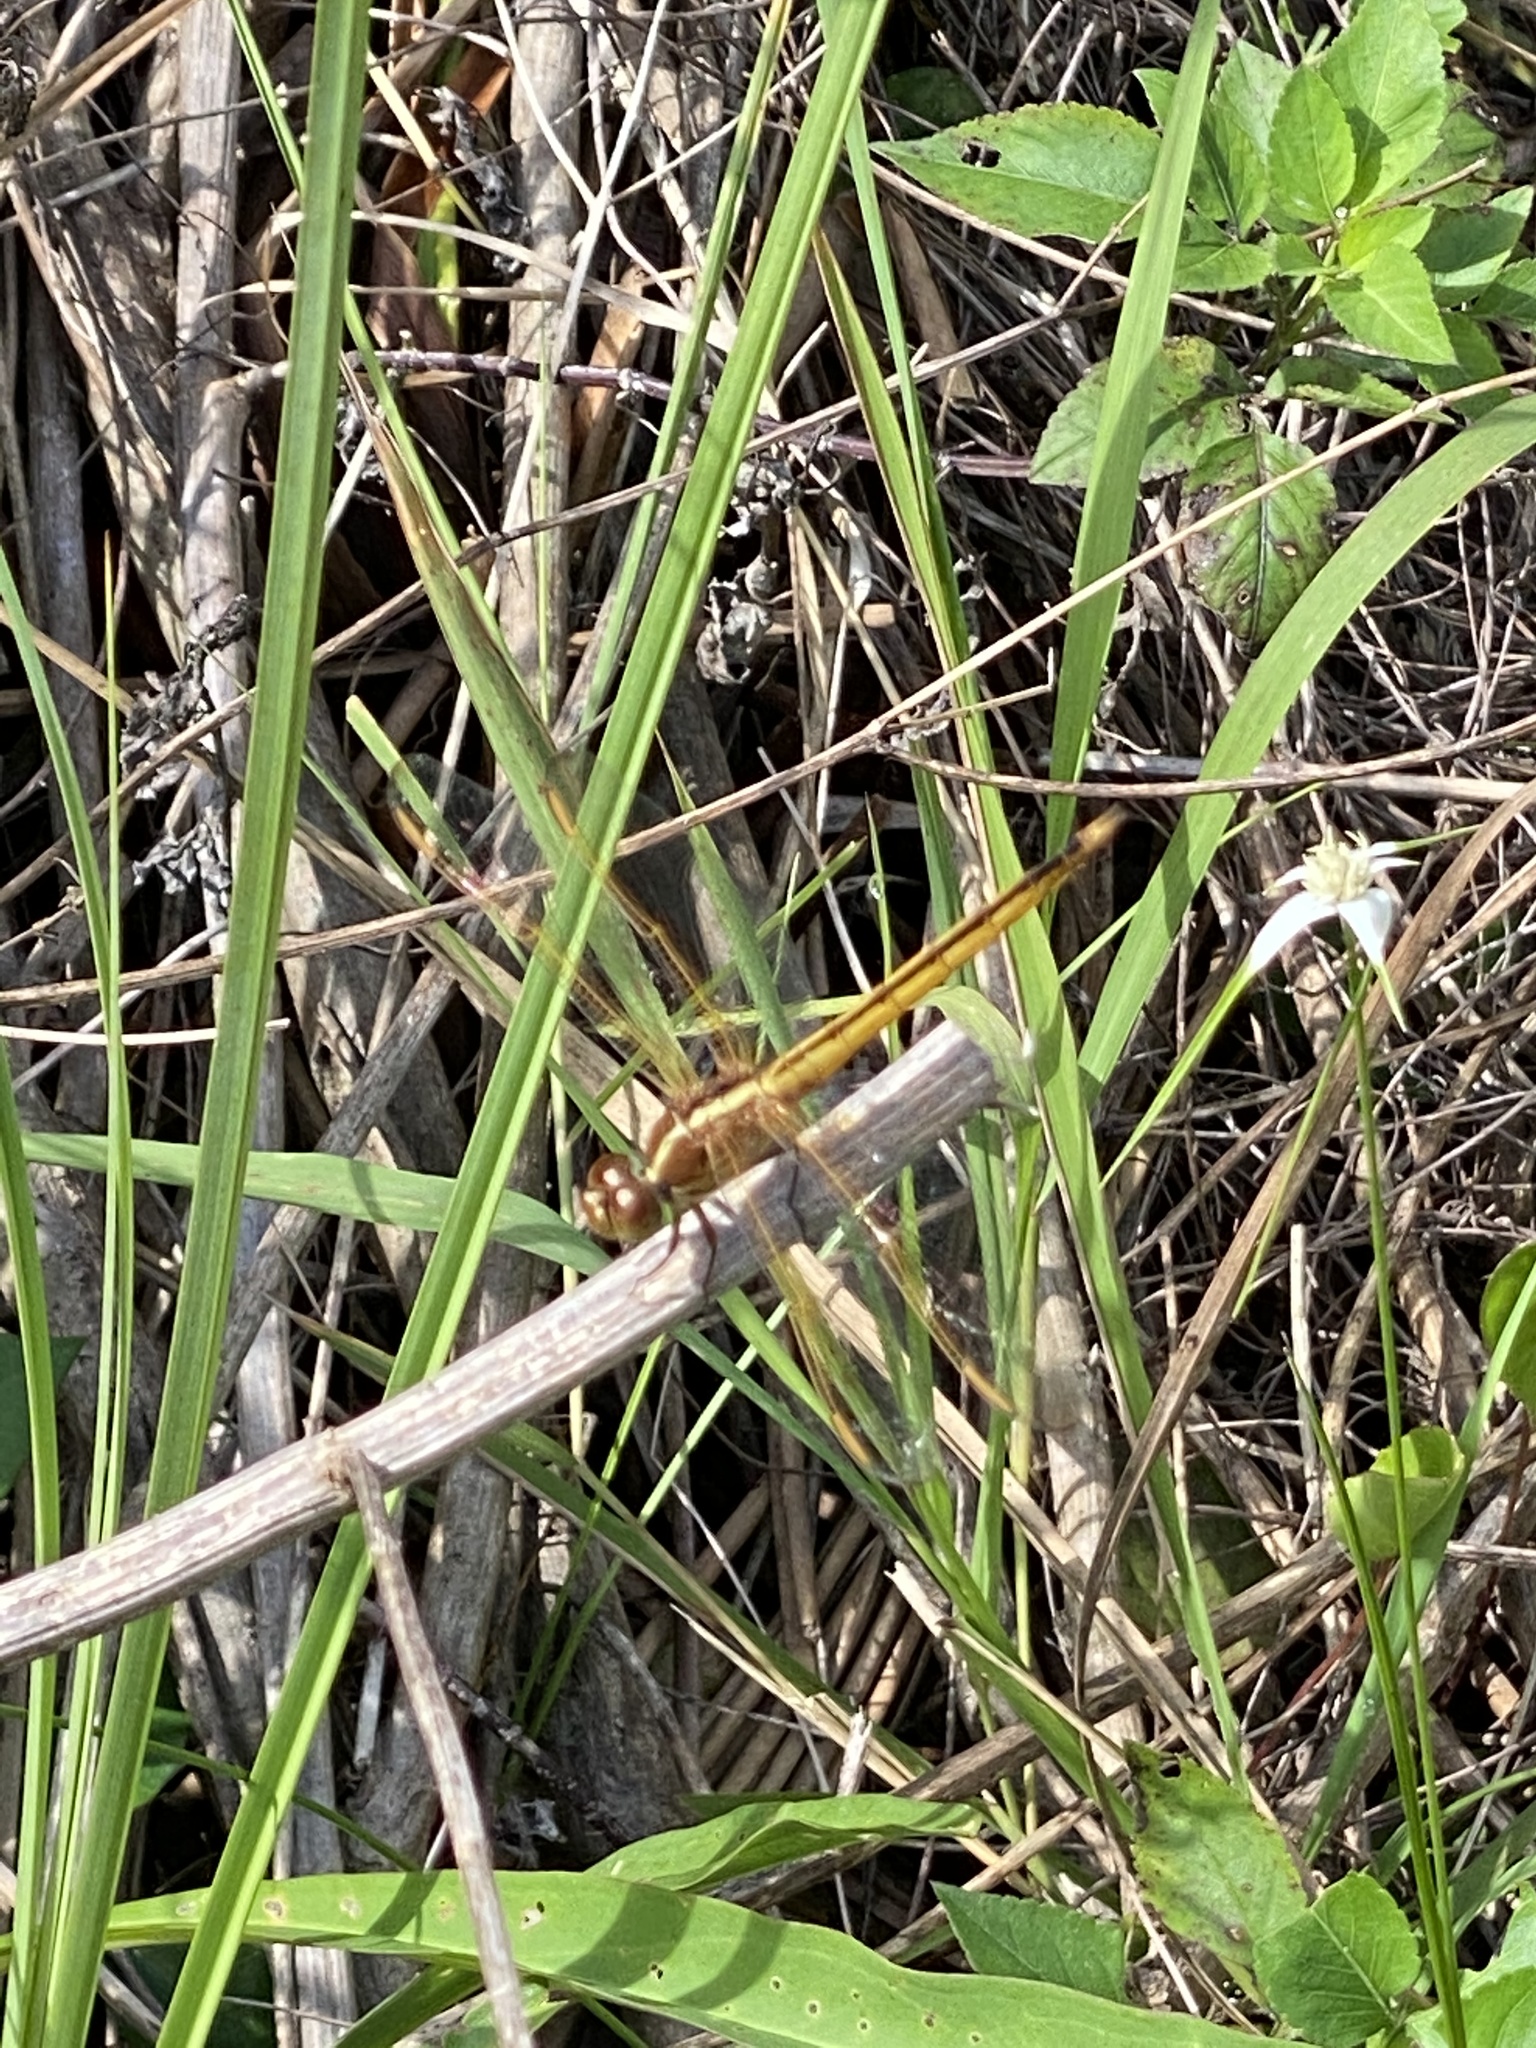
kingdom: Animalia
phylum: Arthropoda
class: Insecta
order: Odonata
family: Libellulidae
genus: Libellula
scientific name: Libellula needhami
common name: Needham's skimmer
